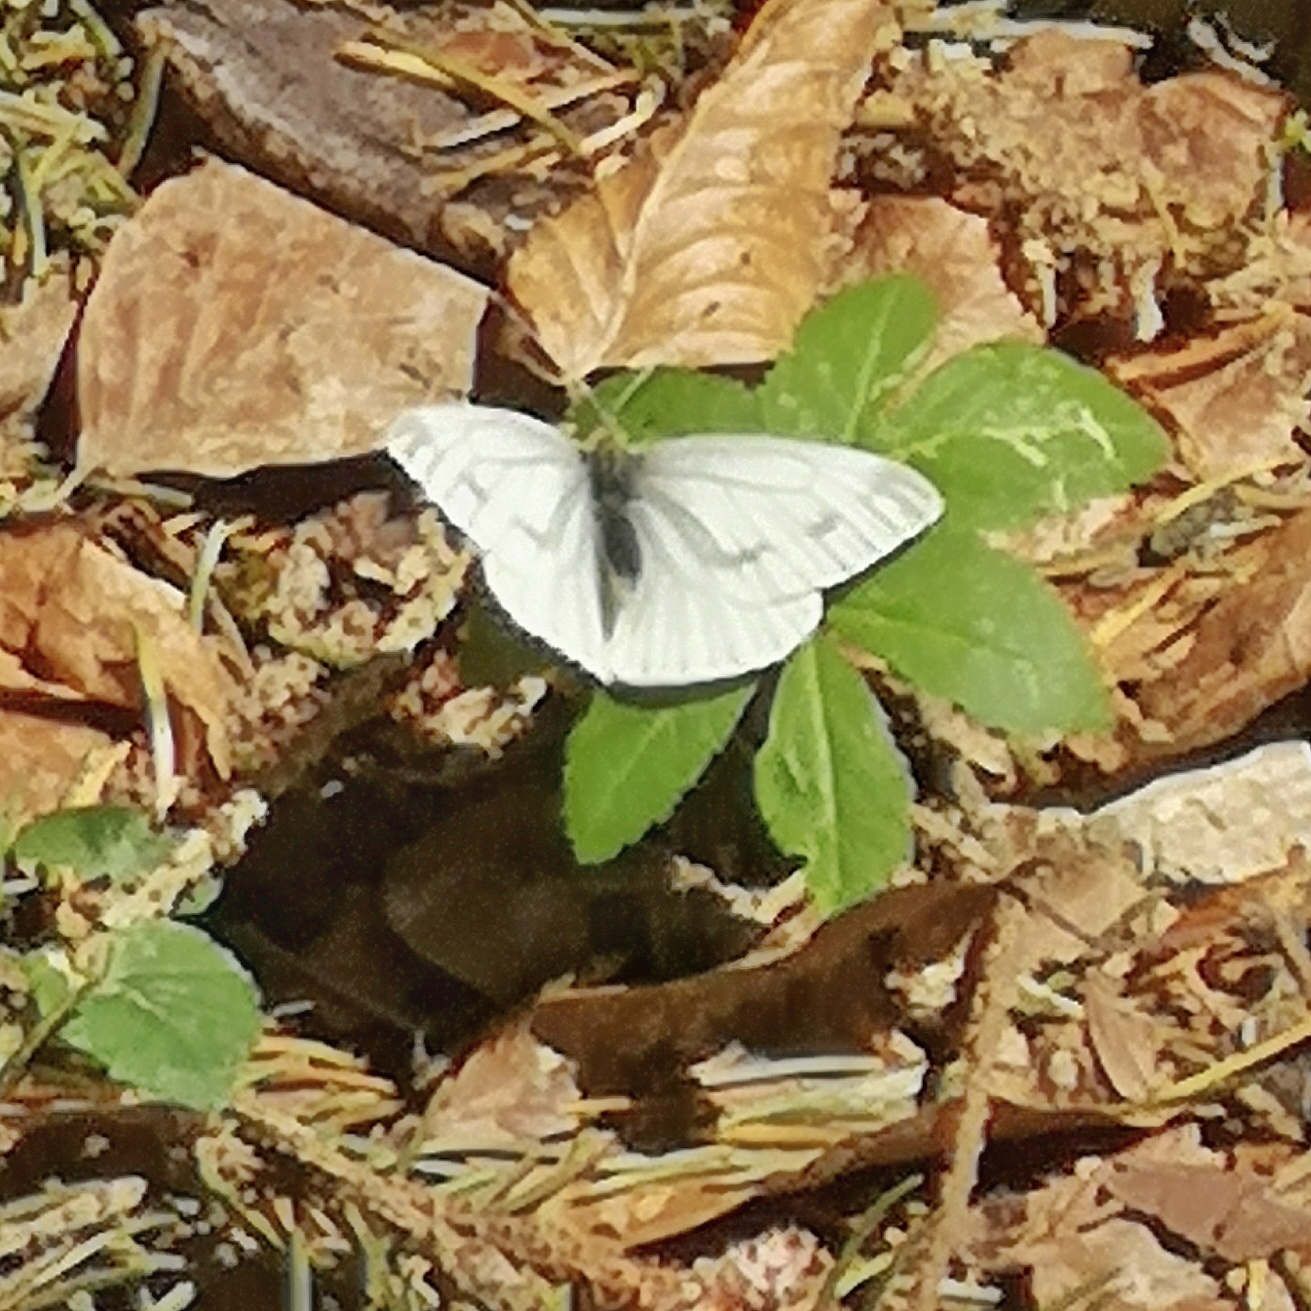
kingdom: Animalia
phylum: Arthropoda
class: Insecta
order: Lepidoptera
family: Pieridae
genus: Pieris
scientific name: Pieris napi
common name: Green-veined white
